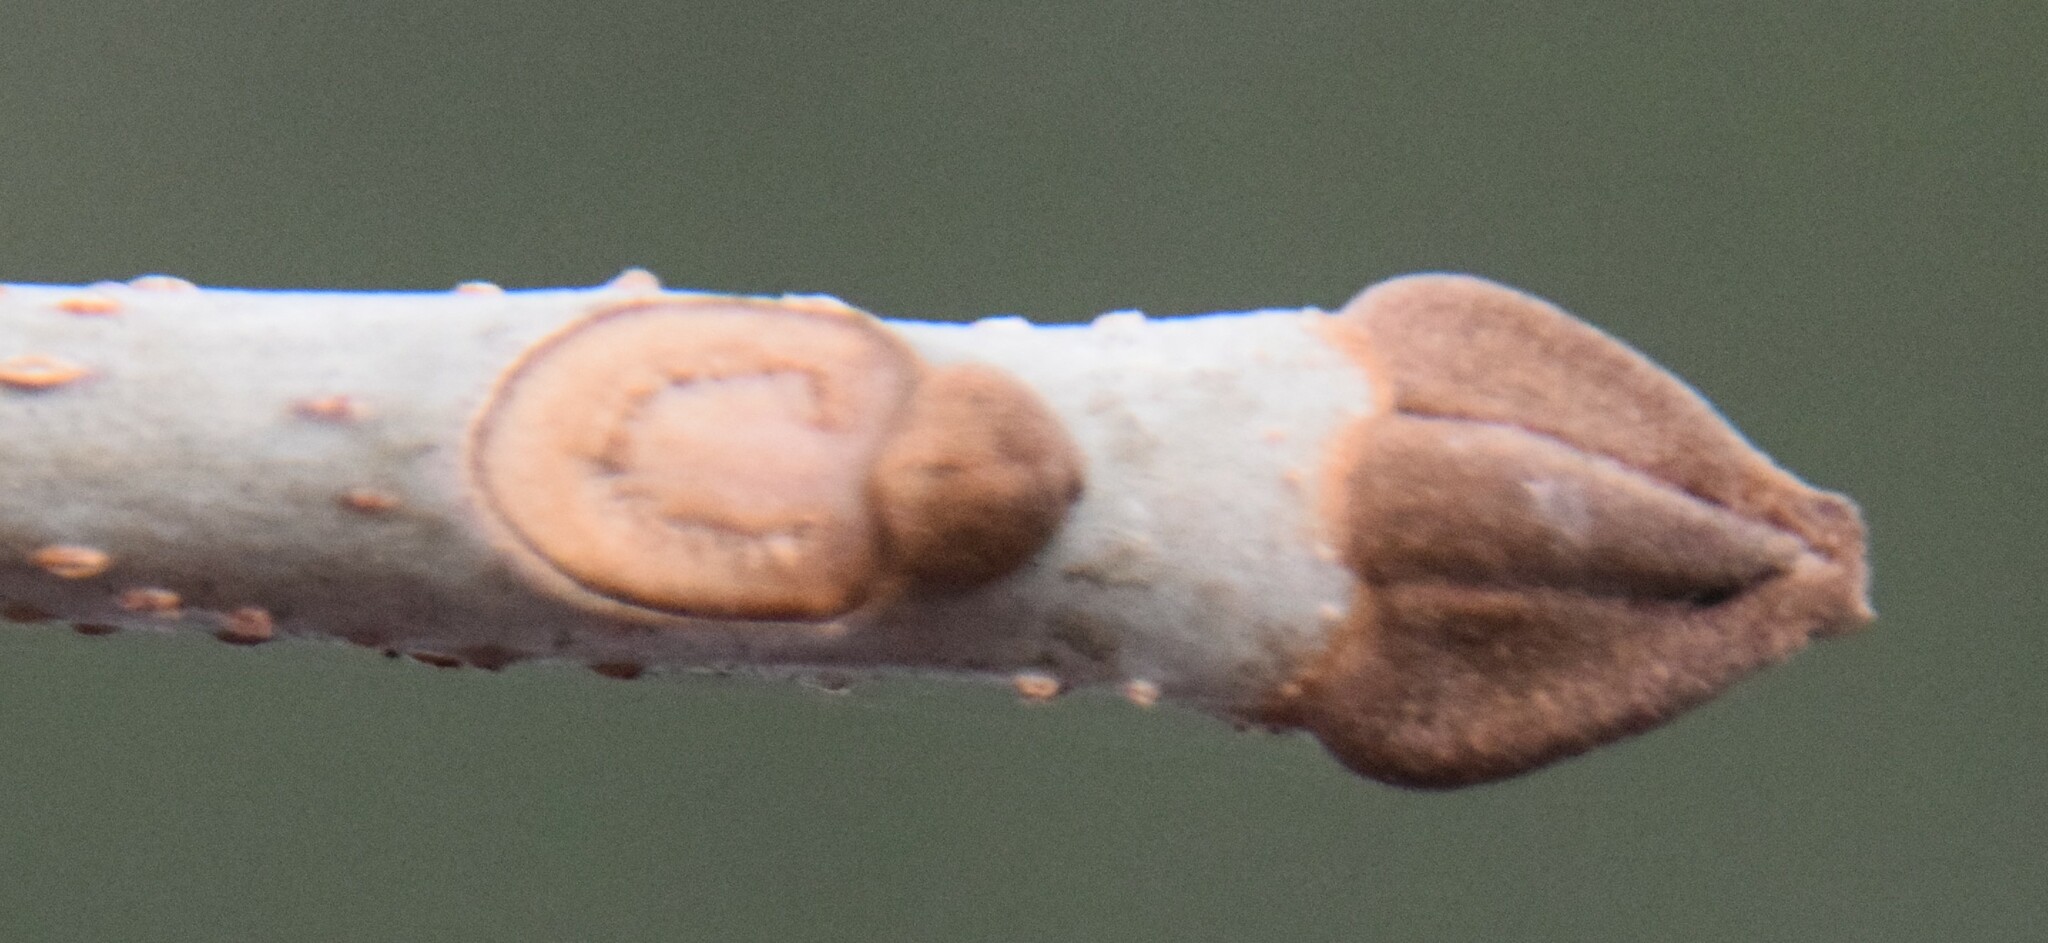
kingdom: Plantae
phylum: Tracheophyta
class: Magnoliopsida
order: Lamiales
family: Oleaceae
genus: Fraxinus
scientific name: Fraxinus nigra
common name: Black ash
